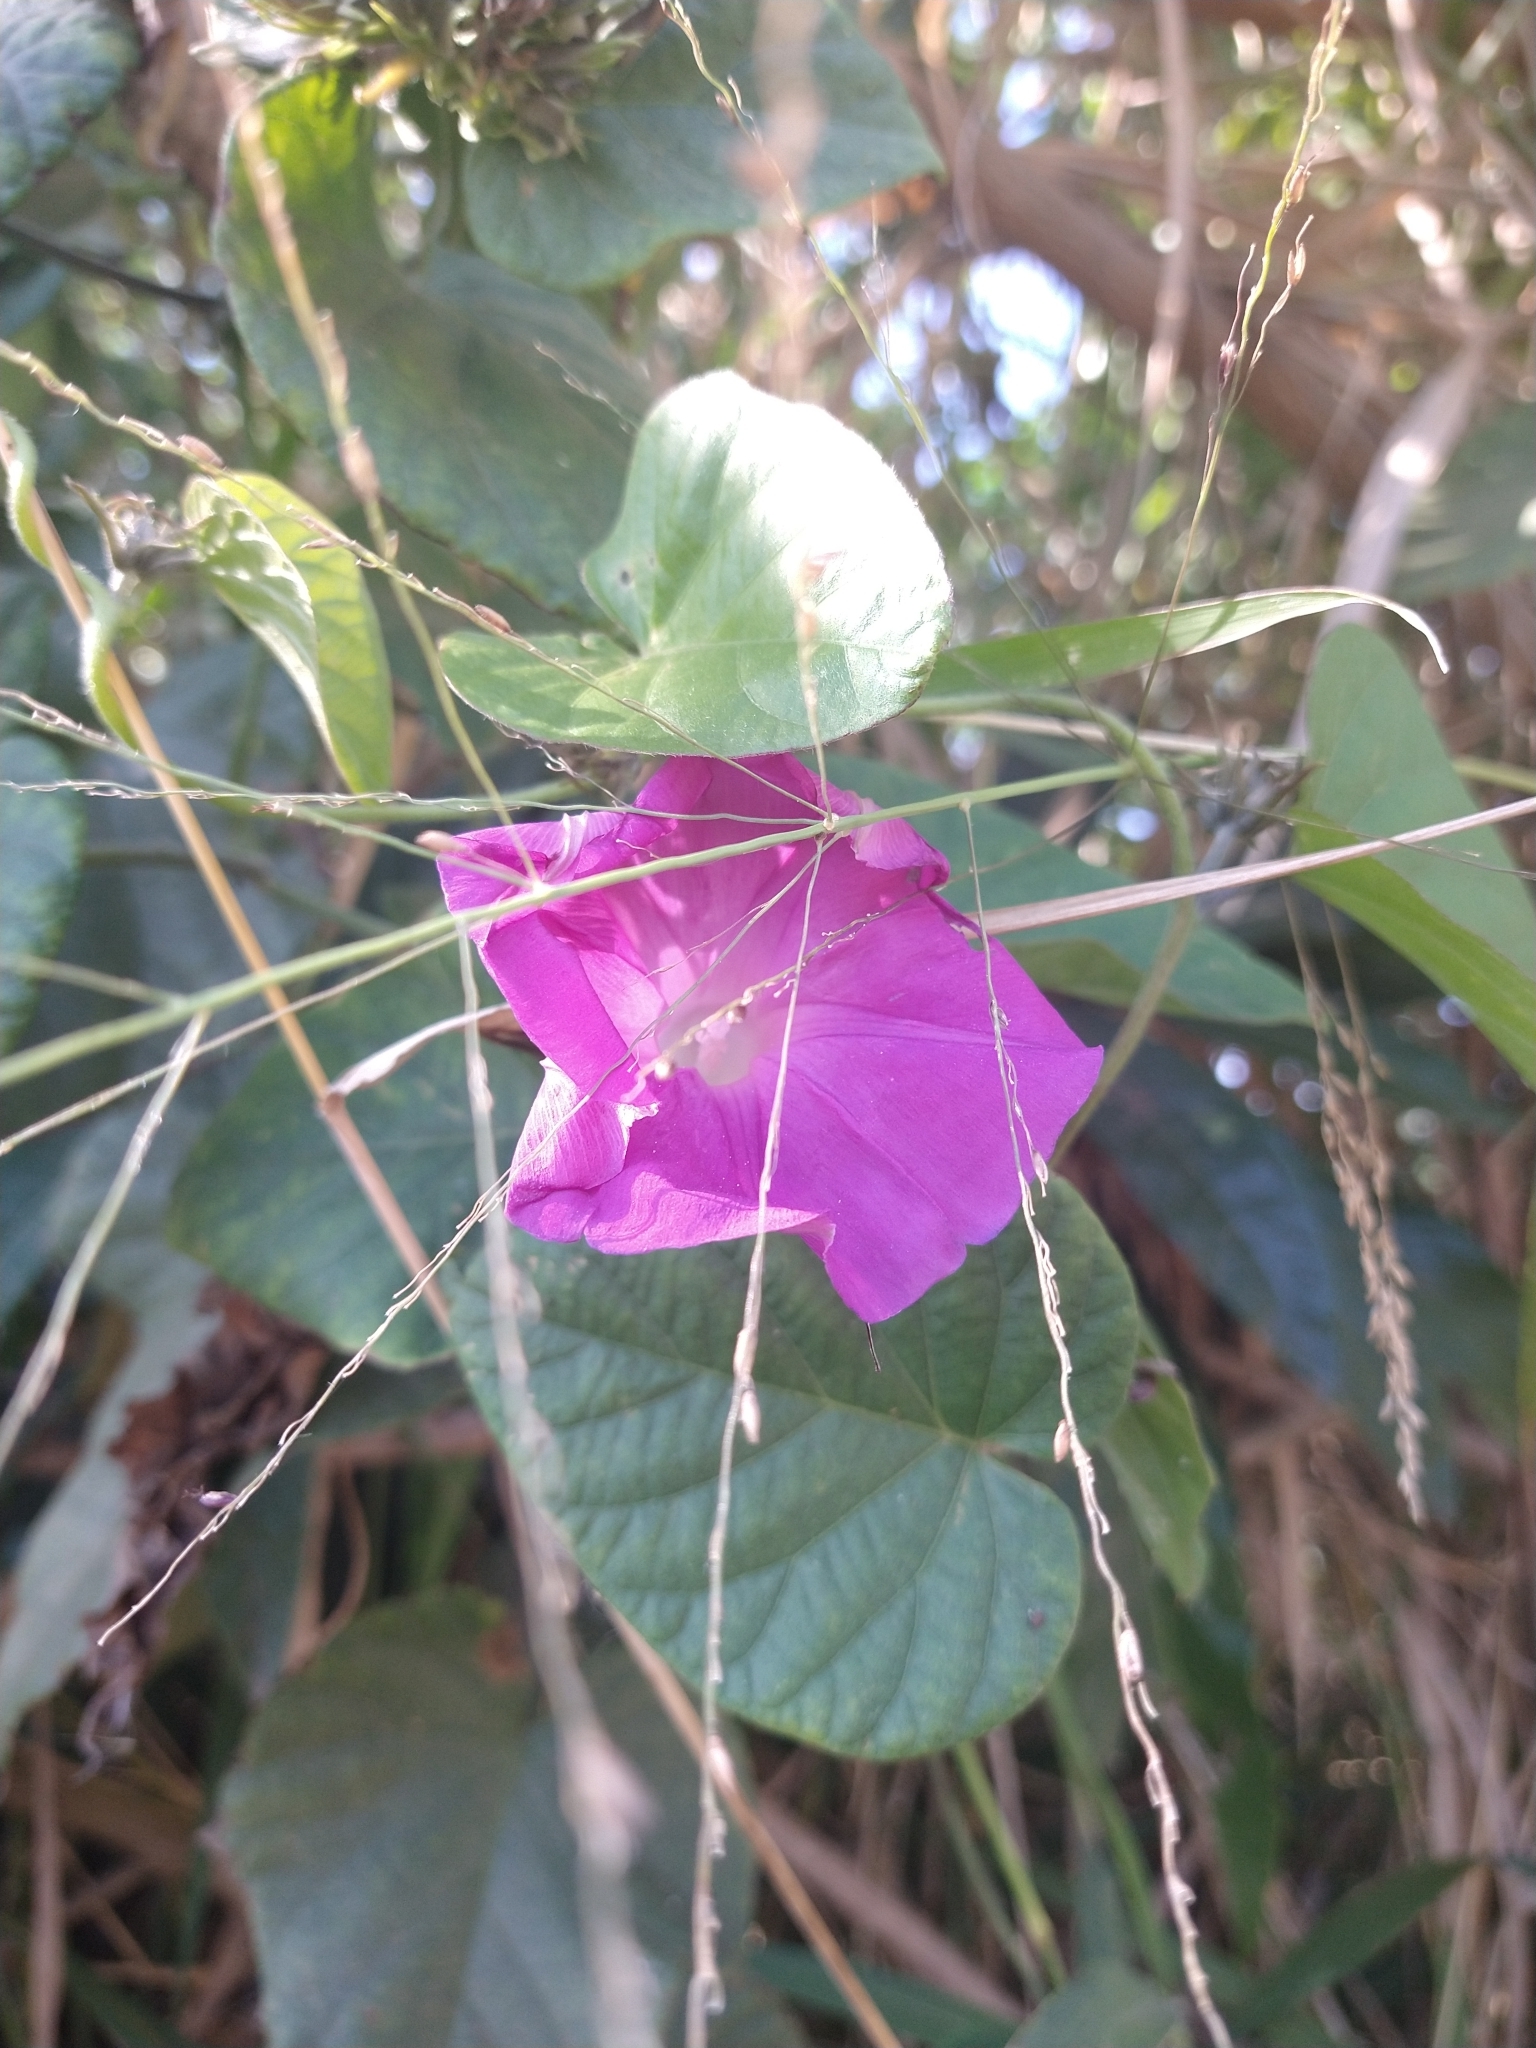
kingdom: Plantae
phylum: Tracheophyta
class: Magnoliopsida
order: Solanales
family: Convolvulaceae
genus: Ipomoea
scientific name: Ipomoea indica
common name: Blue dawnflower
